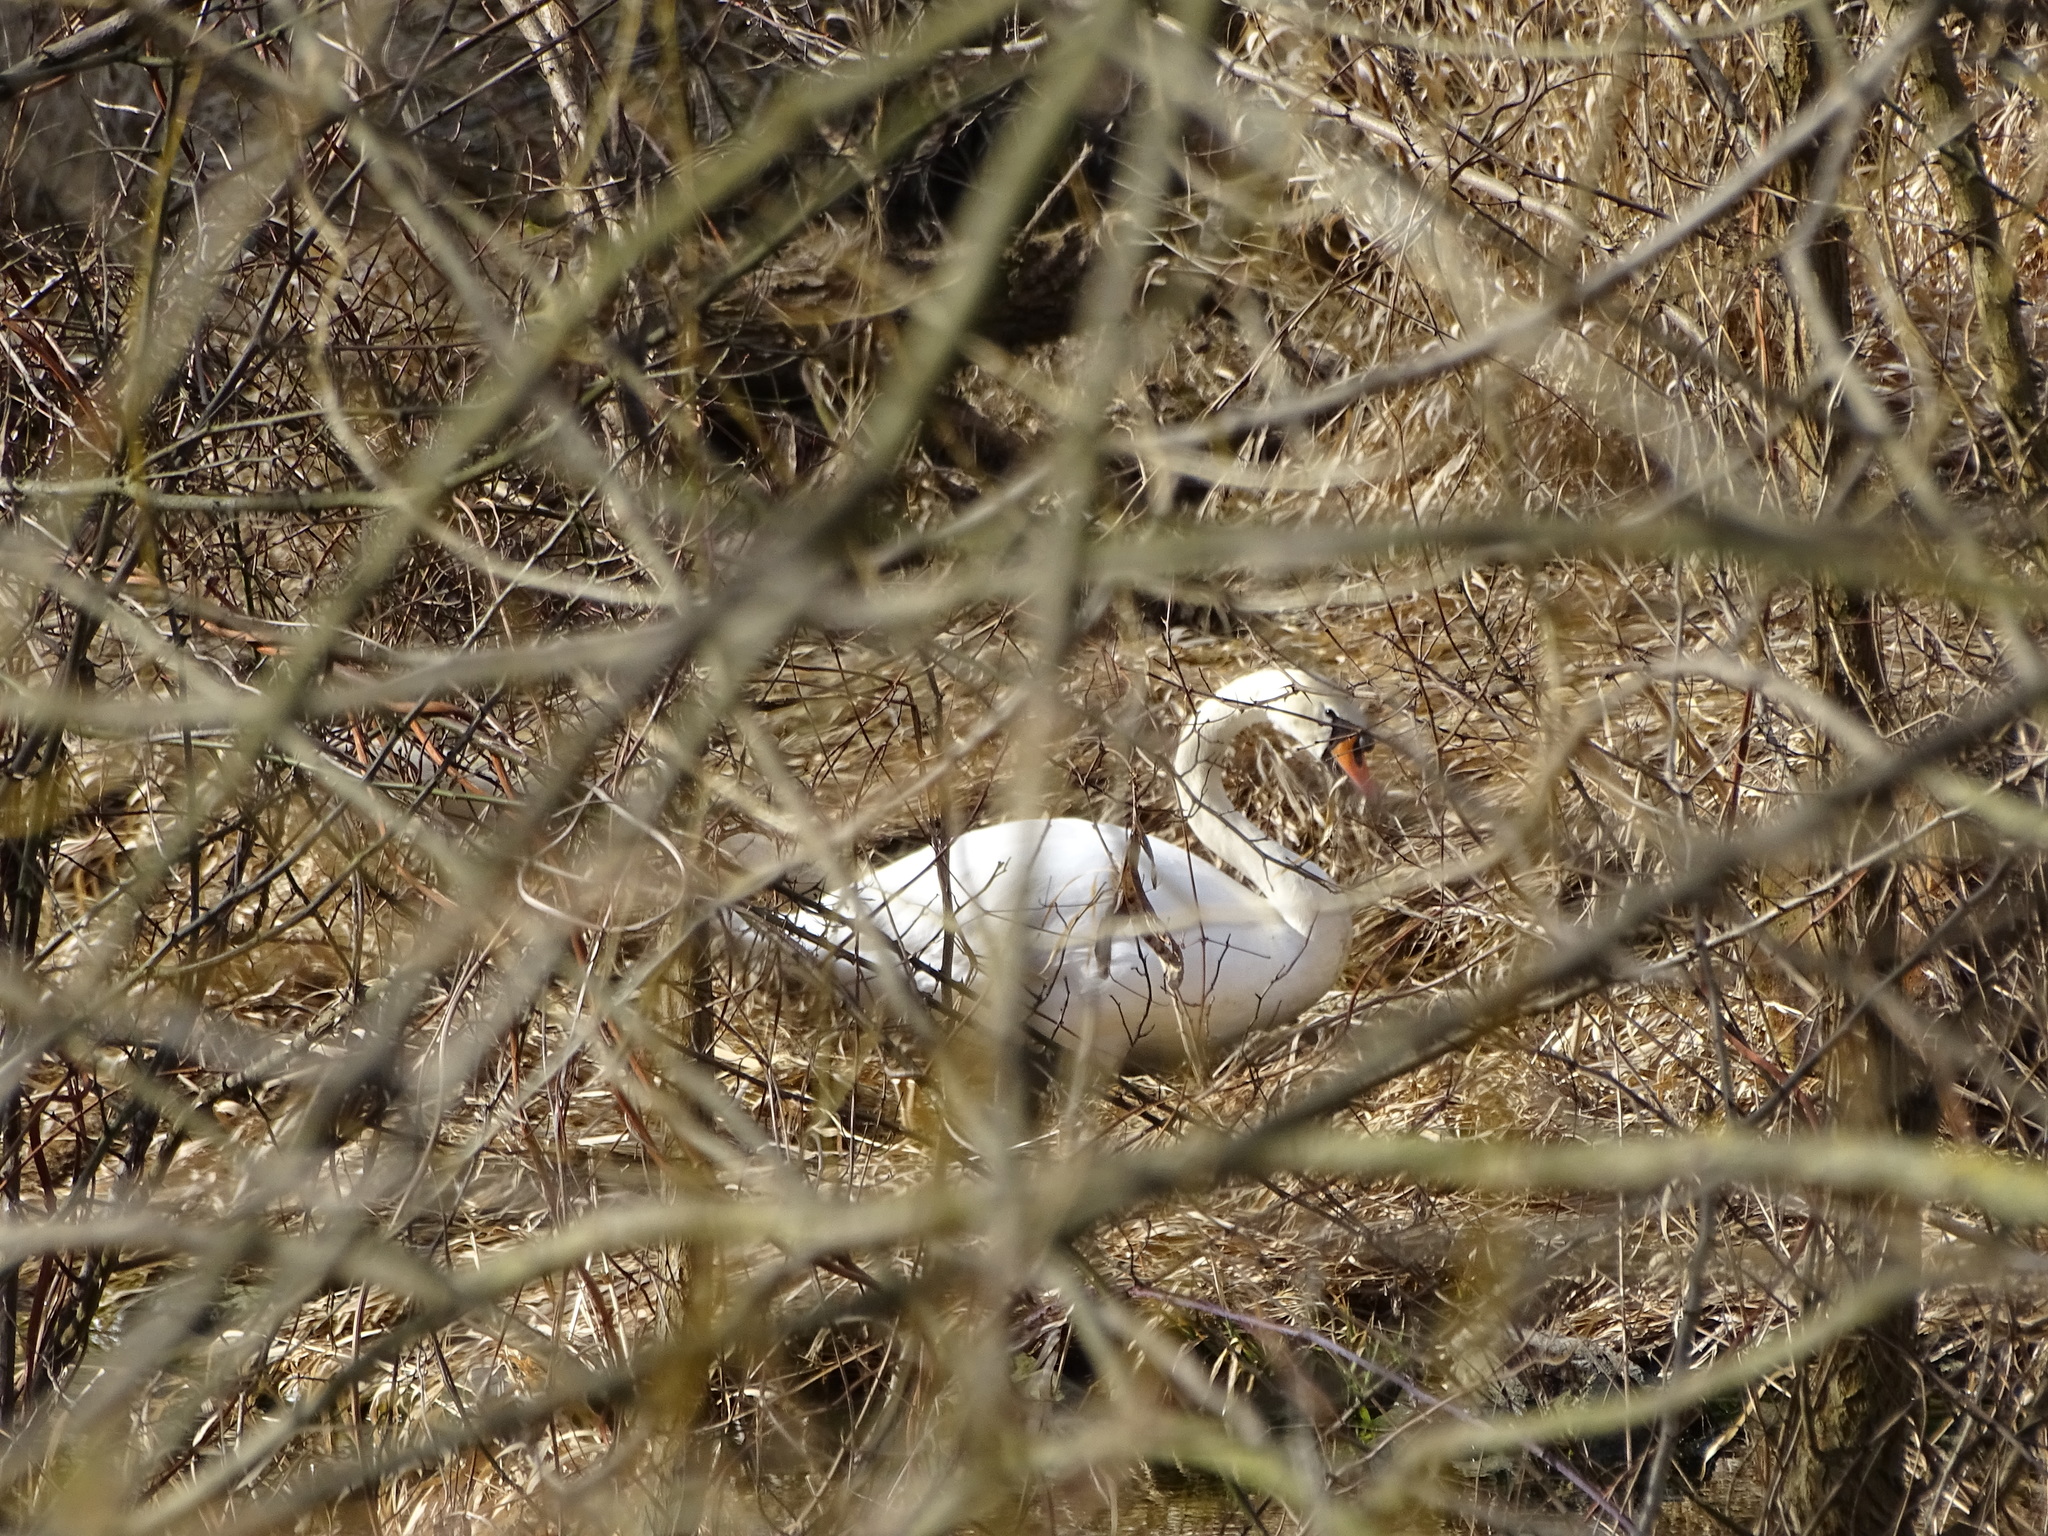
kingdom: Animalia
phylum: Chordata
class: Aves
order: Anseriformes
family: Anatidae
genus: Cygnus
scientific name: Cygnus olor
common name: Mute swan
